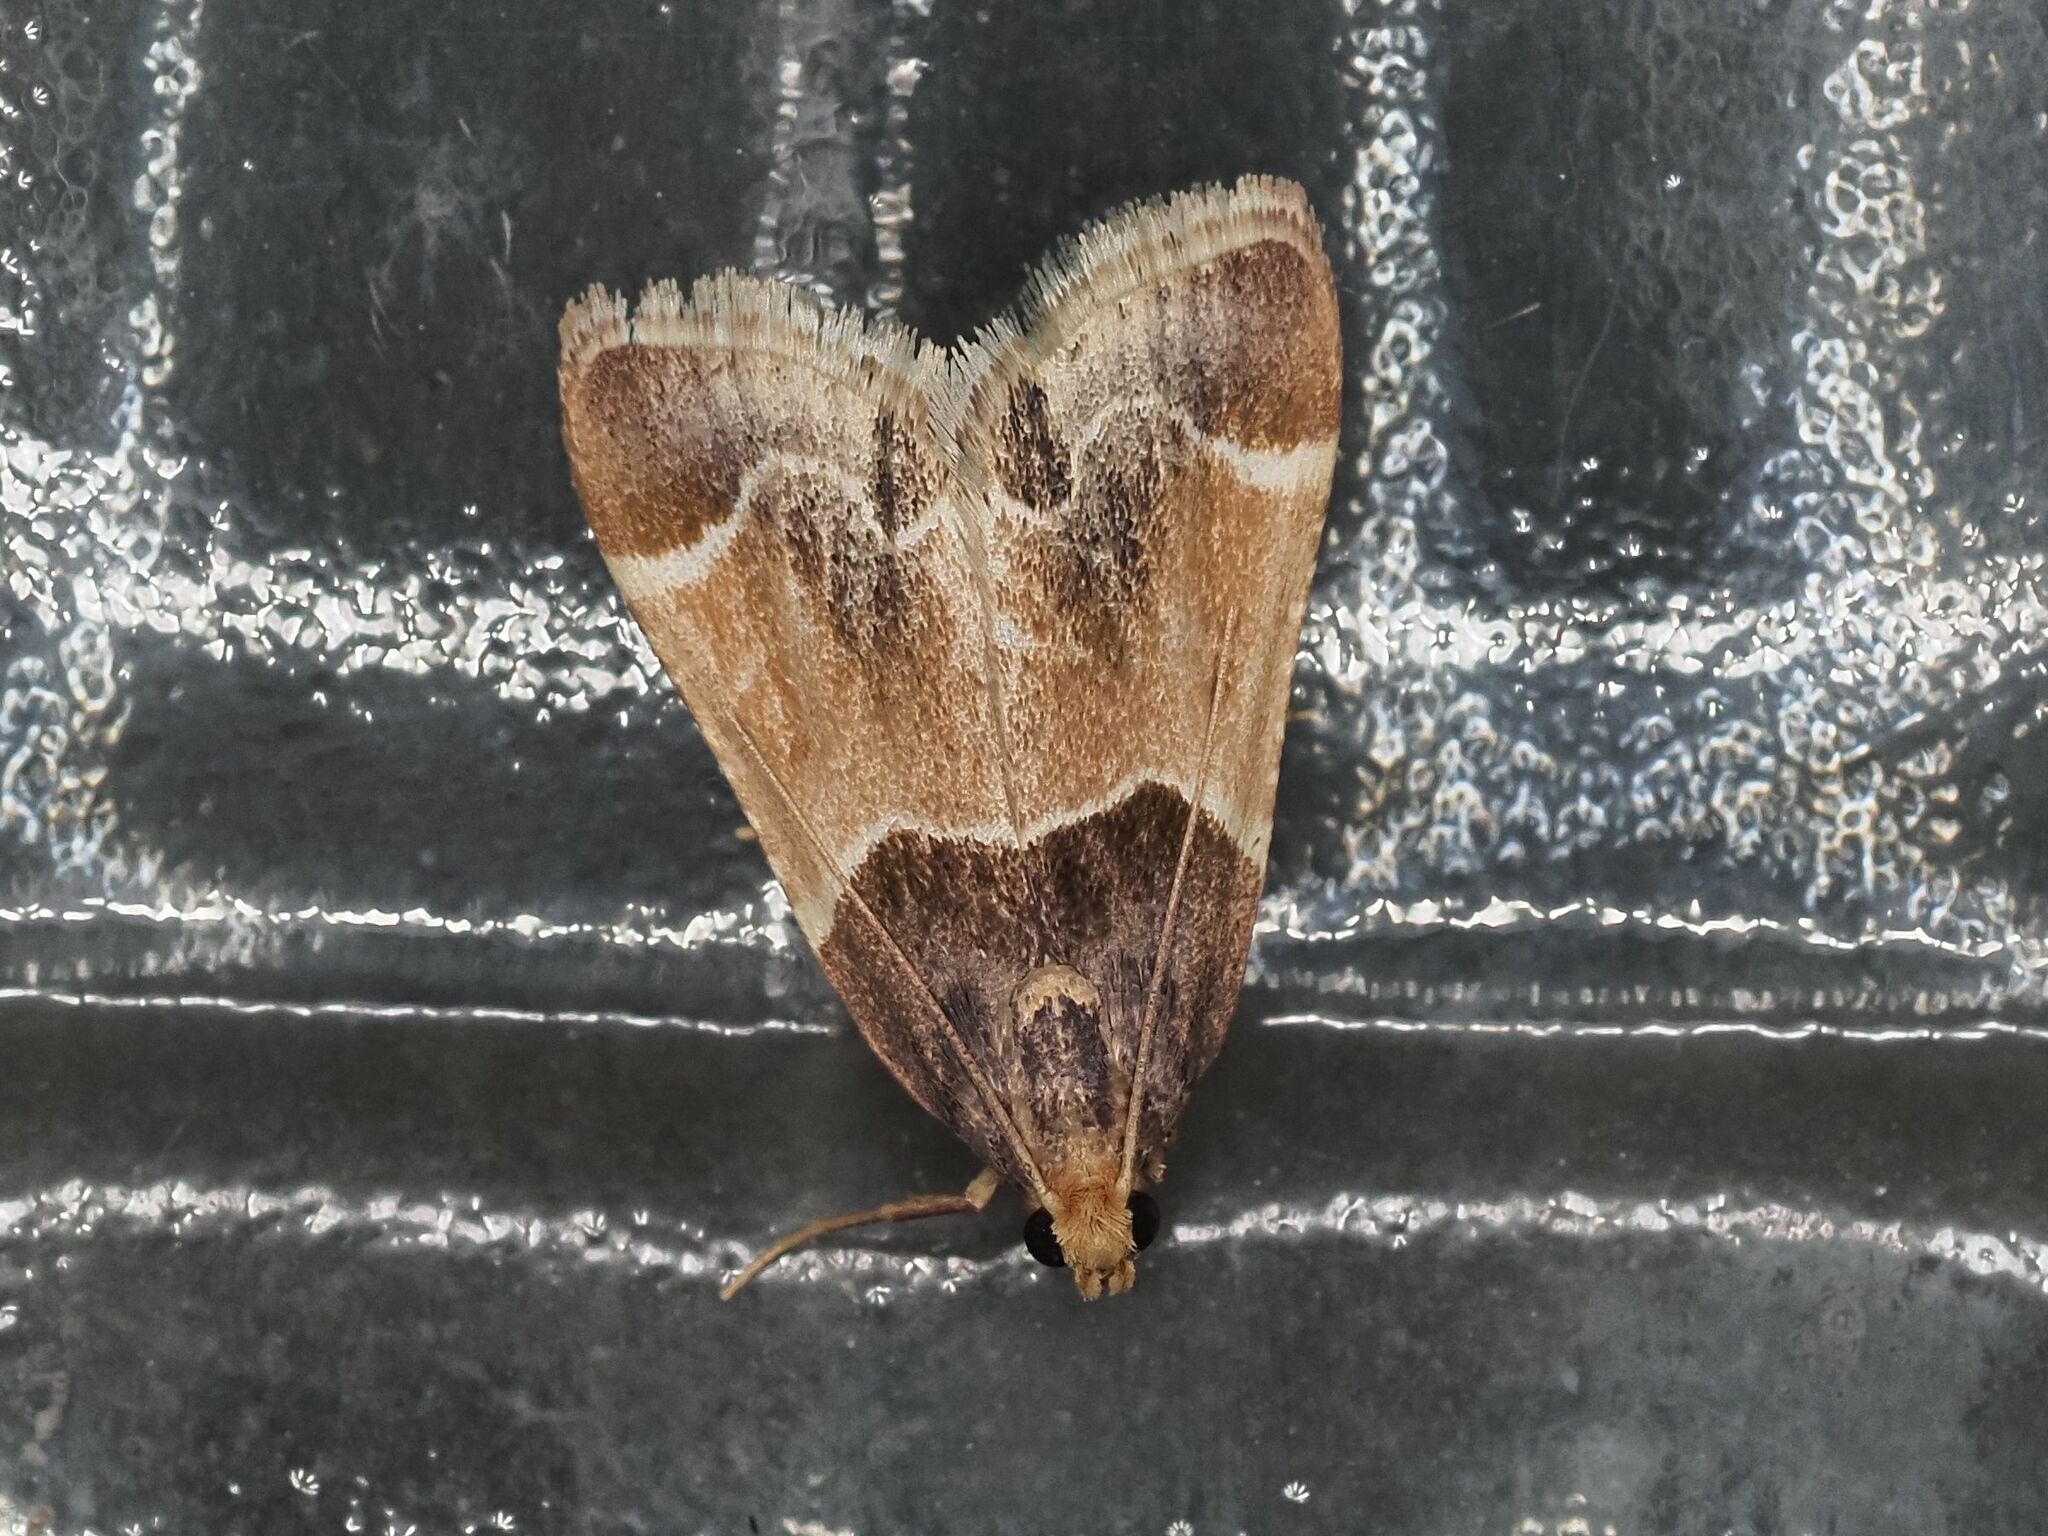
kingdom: Animalia
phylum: Arthropoda
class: Insecta
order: Lepidoptera
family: Pyralidae
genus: Pyralis
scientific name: Pyralis farinalis
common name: Meal moth
